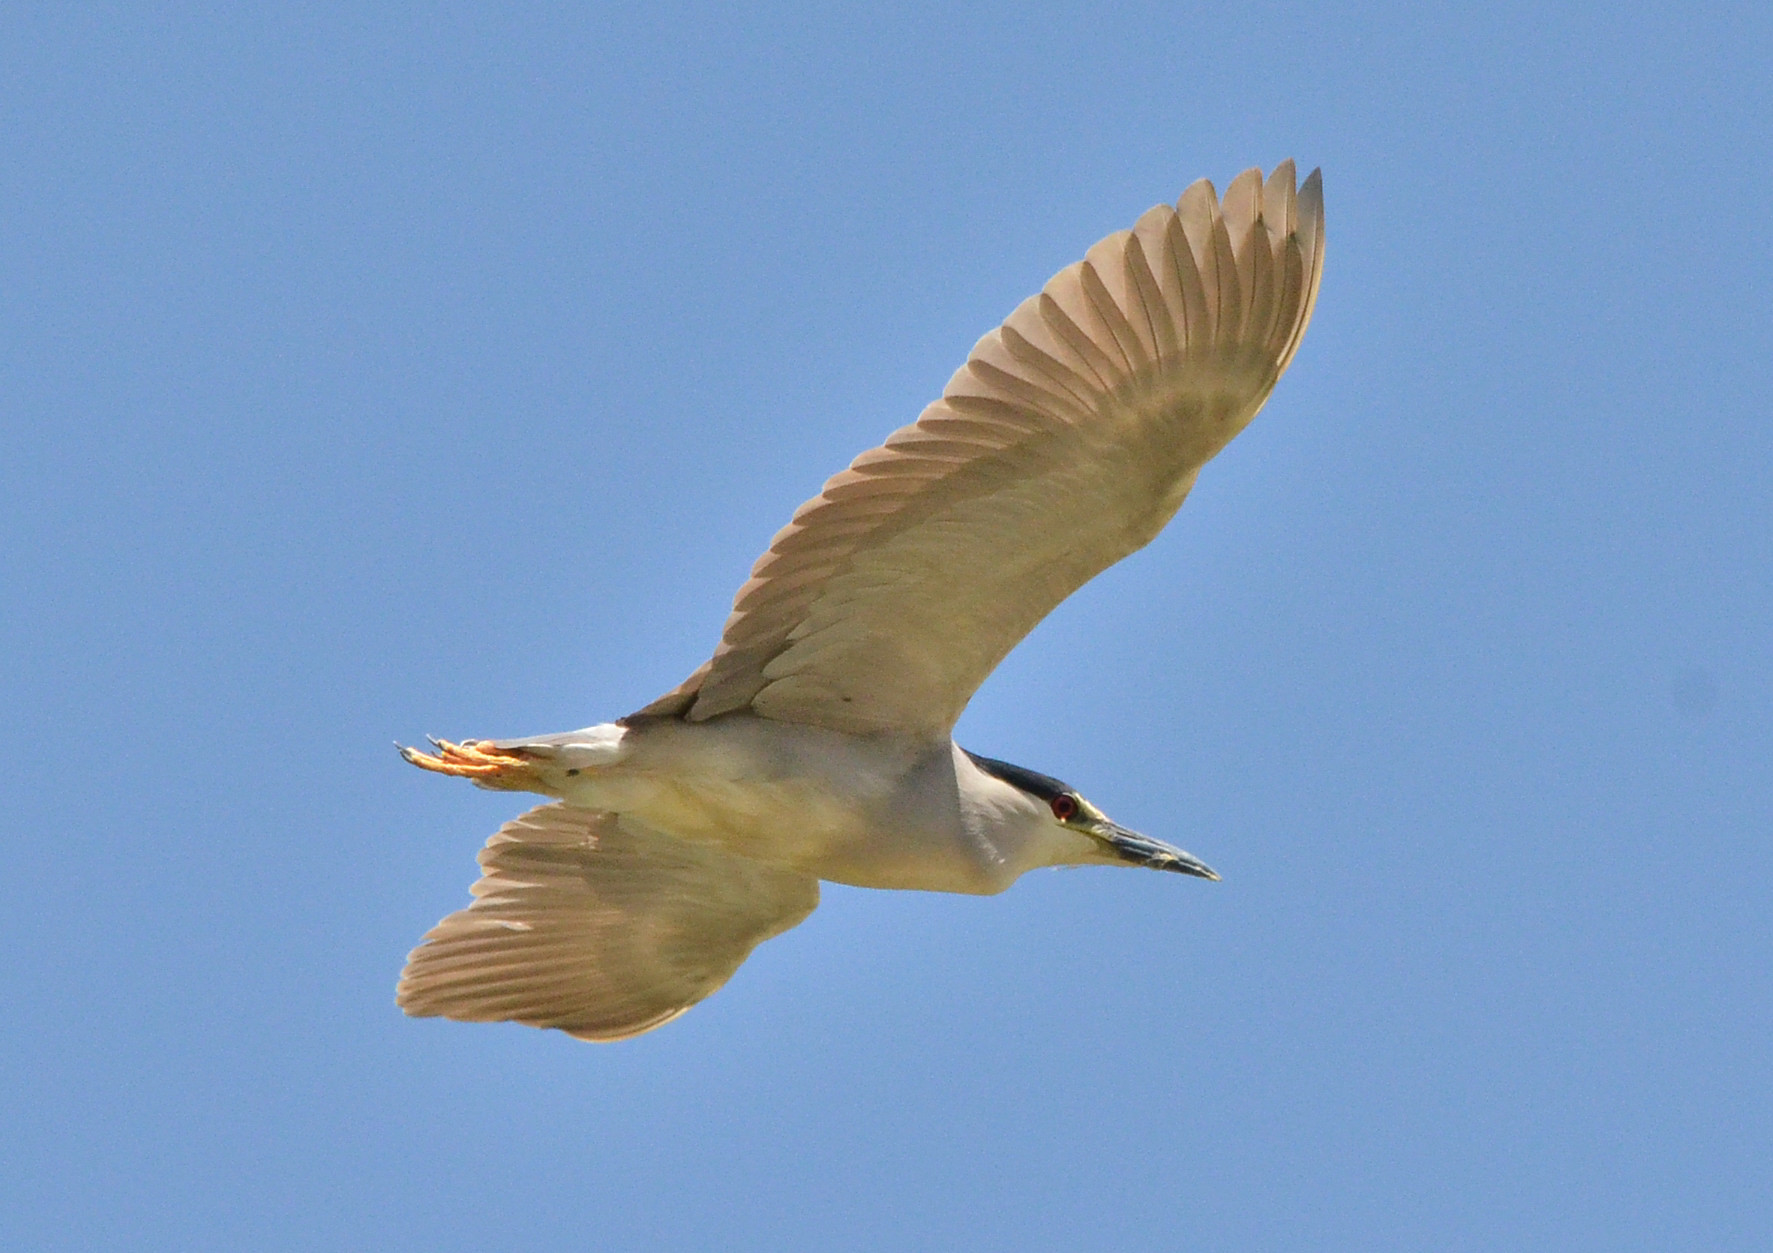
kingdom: Animalia
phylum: Chordata
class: Aves
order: Pelecaniformes
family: Ardeidae
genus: Nycticorax
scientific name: Nycticorax nycticorax
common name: Black-crowned night heron
